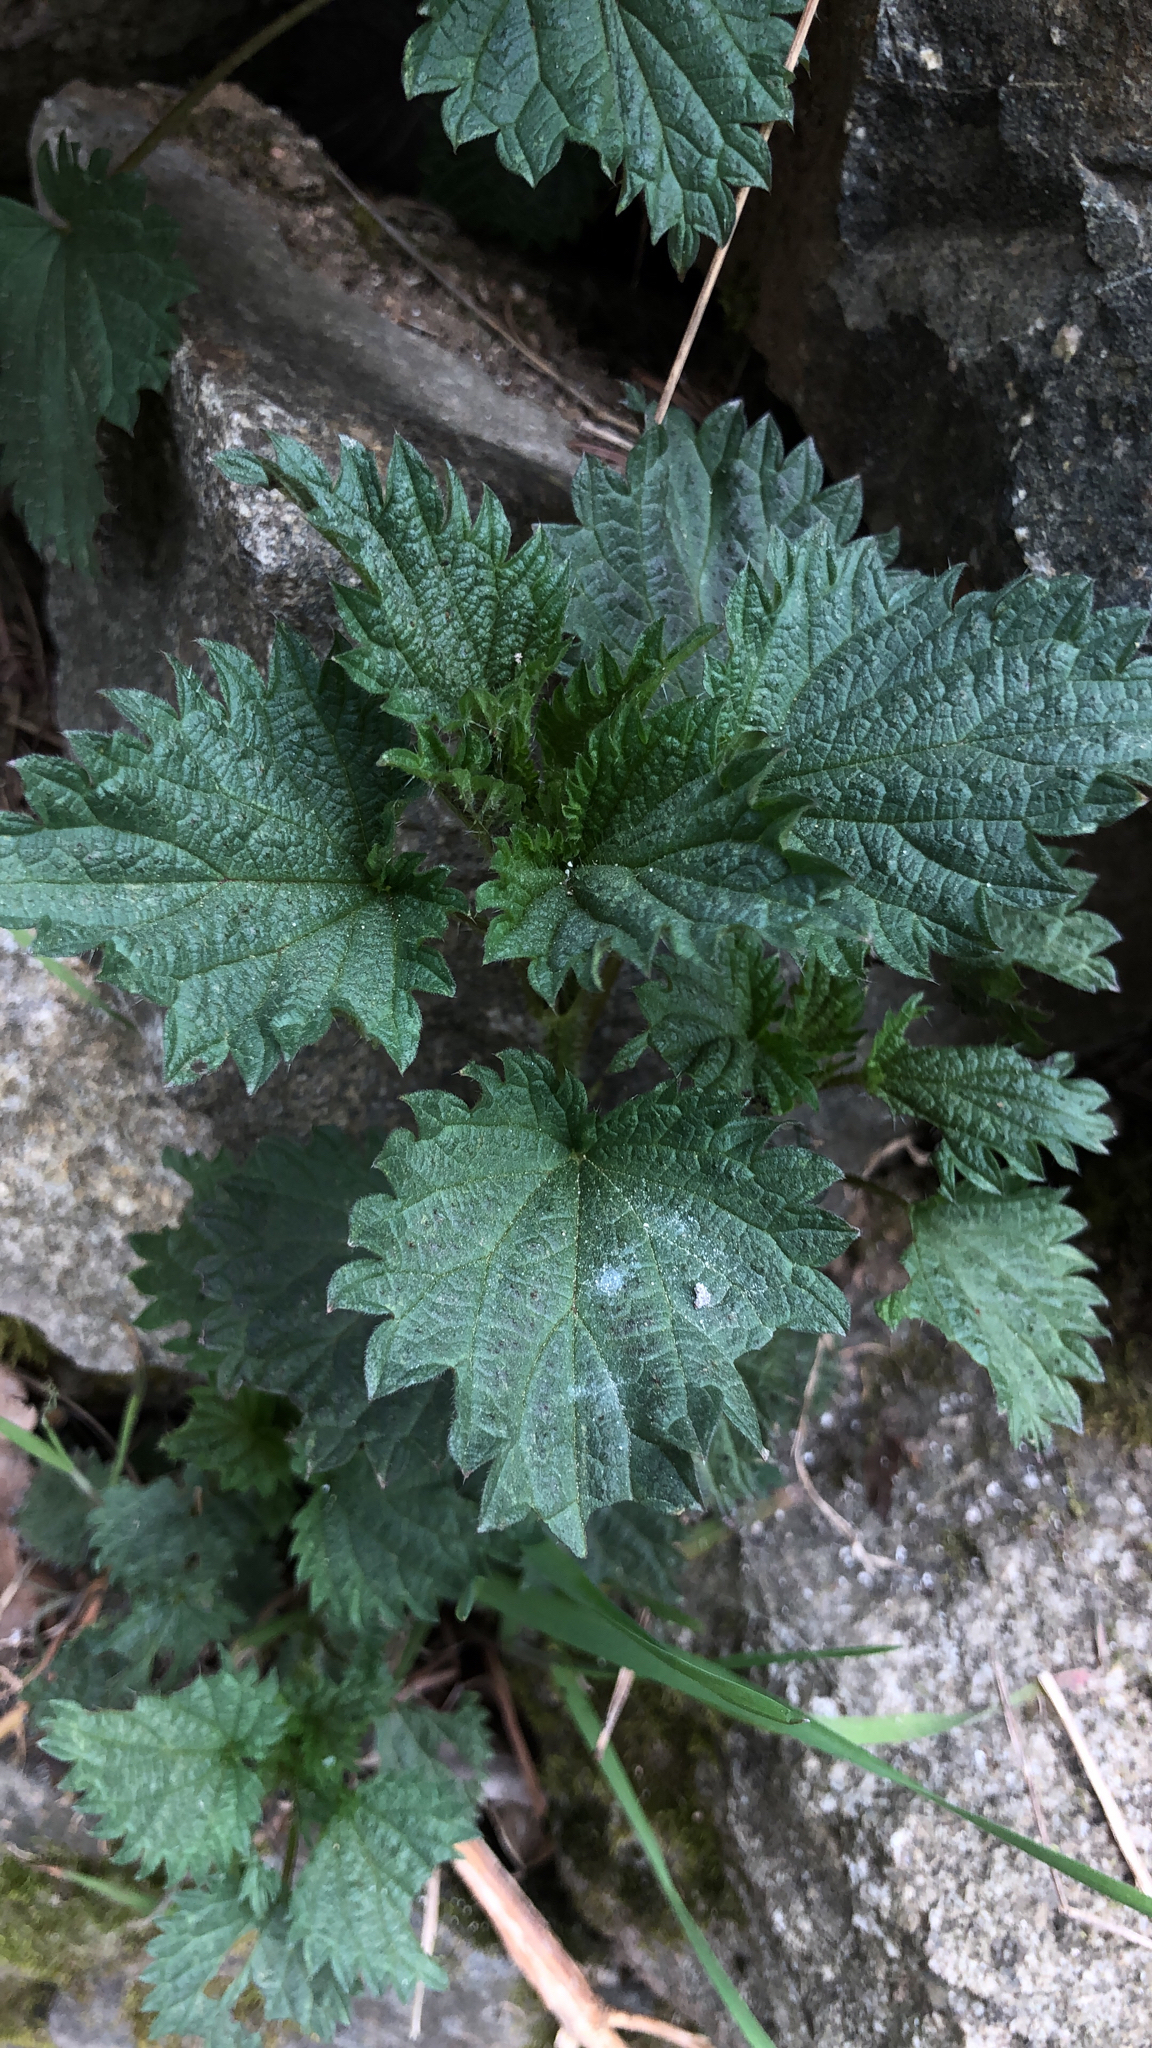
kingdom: Plantae
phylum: Tracheophyta
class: Magnoliopsida
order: Rosales
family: Urticaceae
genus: Urtica
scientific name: Urtica dioica
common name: Common nettle
